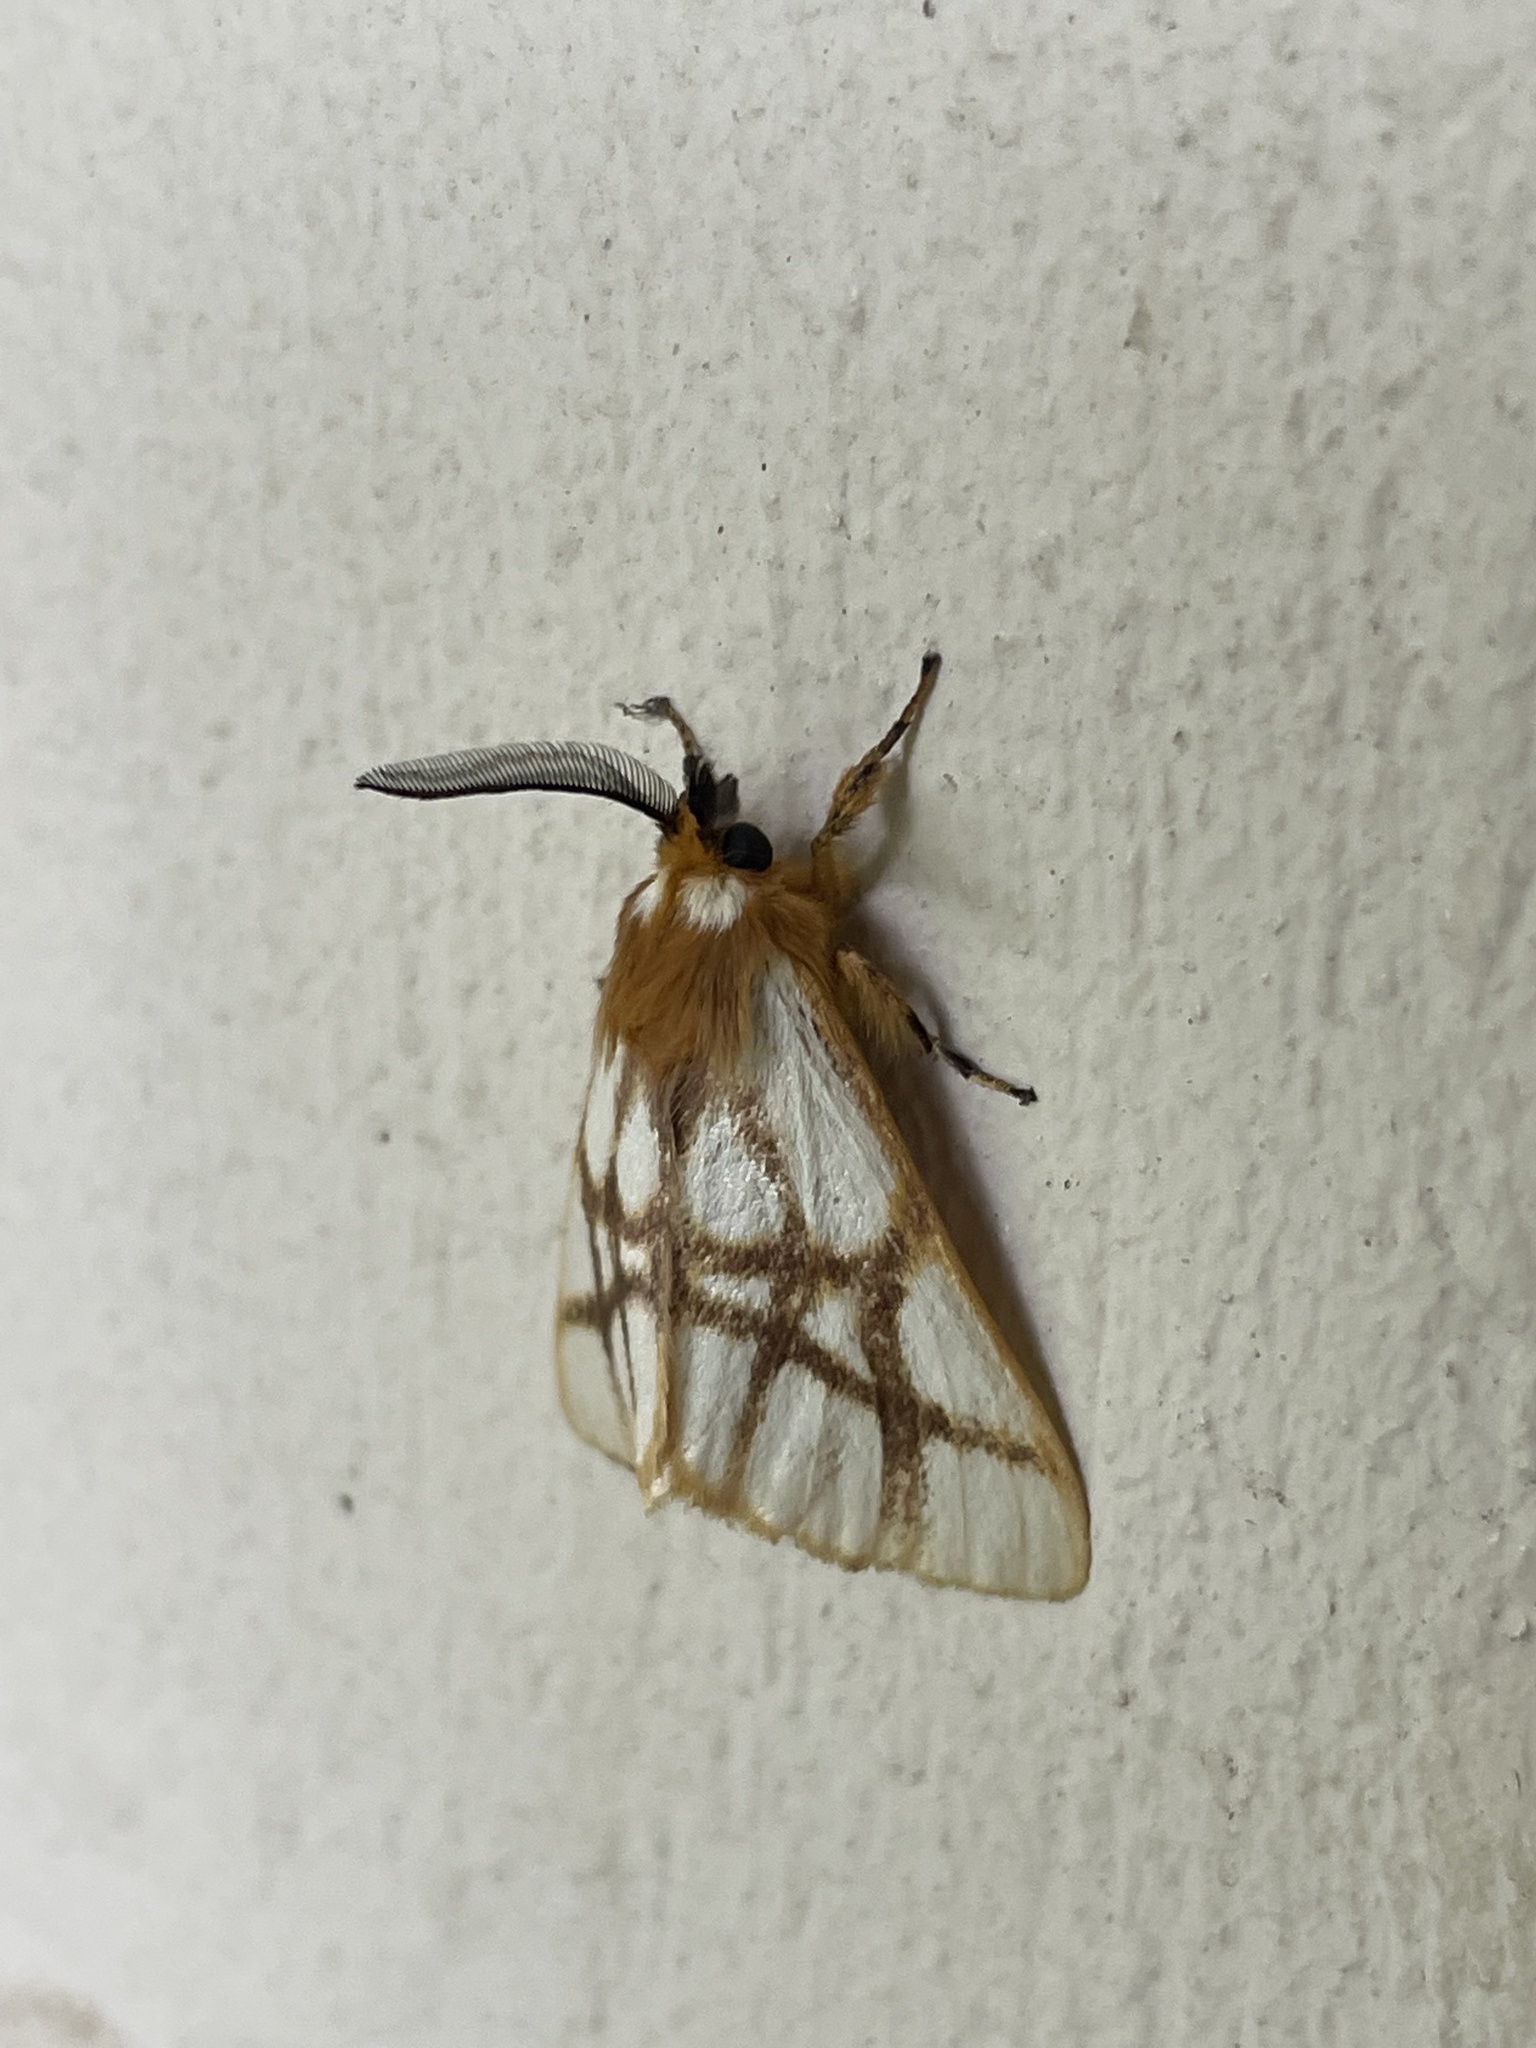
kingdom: Animalia
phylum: Arthropoda
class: Insecta
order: Lepidoptera
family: Notodontidae
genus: Anaphe
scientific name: Anaphe reticulata
